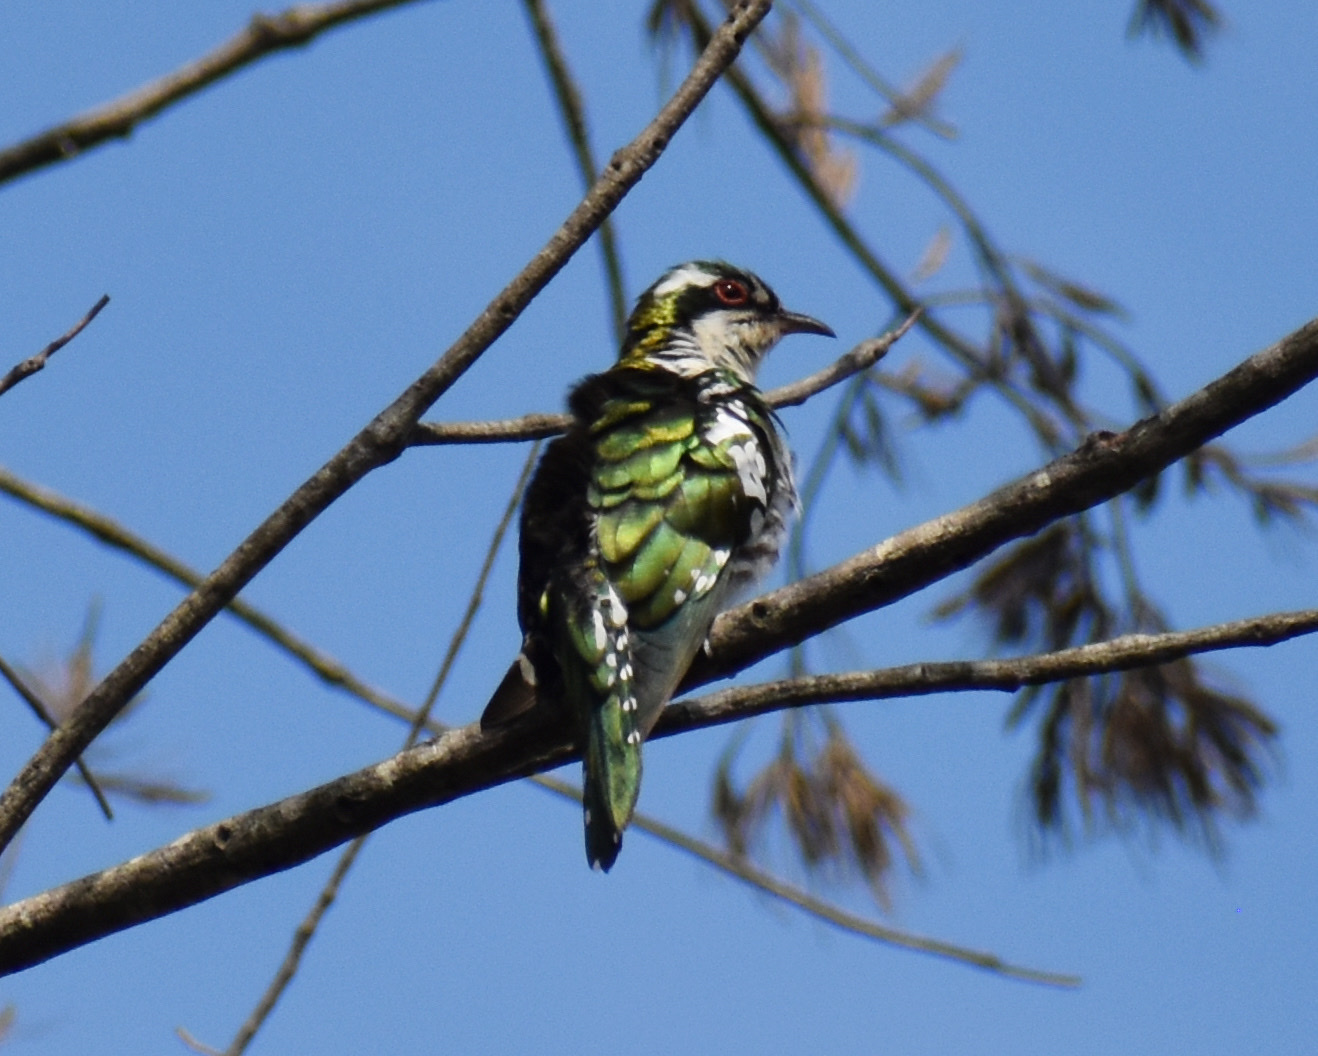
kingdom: Animalia
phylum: Chordata
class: Aves
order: Cuculiformes
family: Cuculidae
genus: Chrysococcyx
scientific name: Chrysococcyx caprius
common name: Diederik cuckoo
